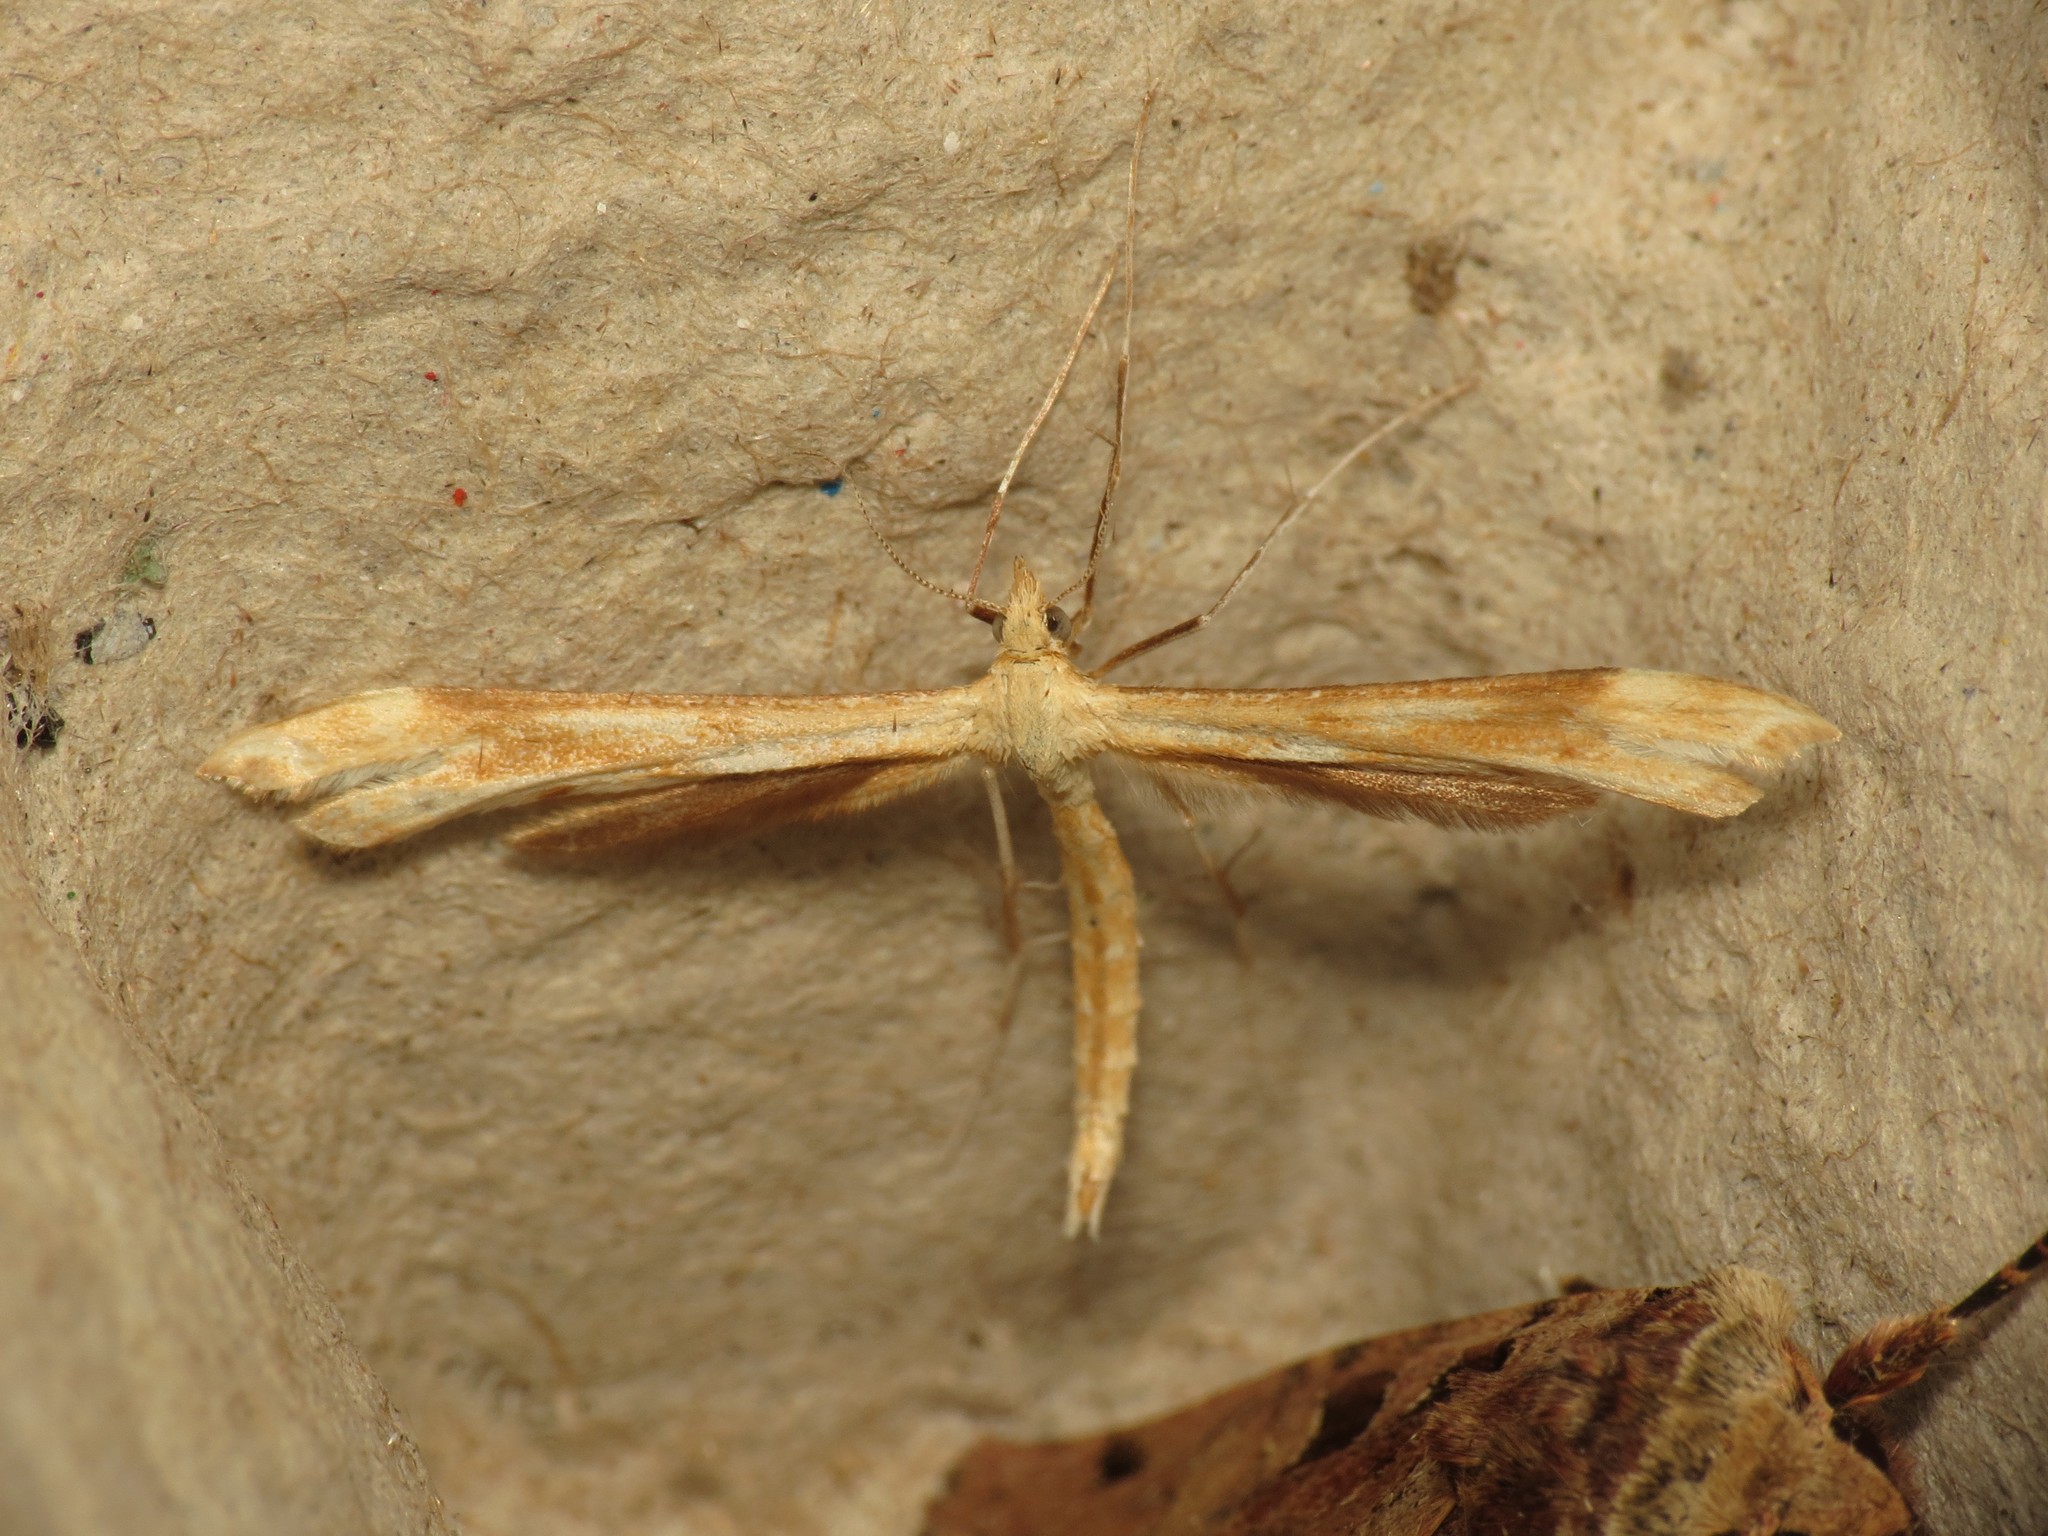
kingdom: Animalia
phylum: Arthropoda
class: Insecta
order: Lepidoptera
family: Pterophoridae
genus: Gillmeria
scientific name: Gillmeria pallidactyla
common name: Yarrow plume
